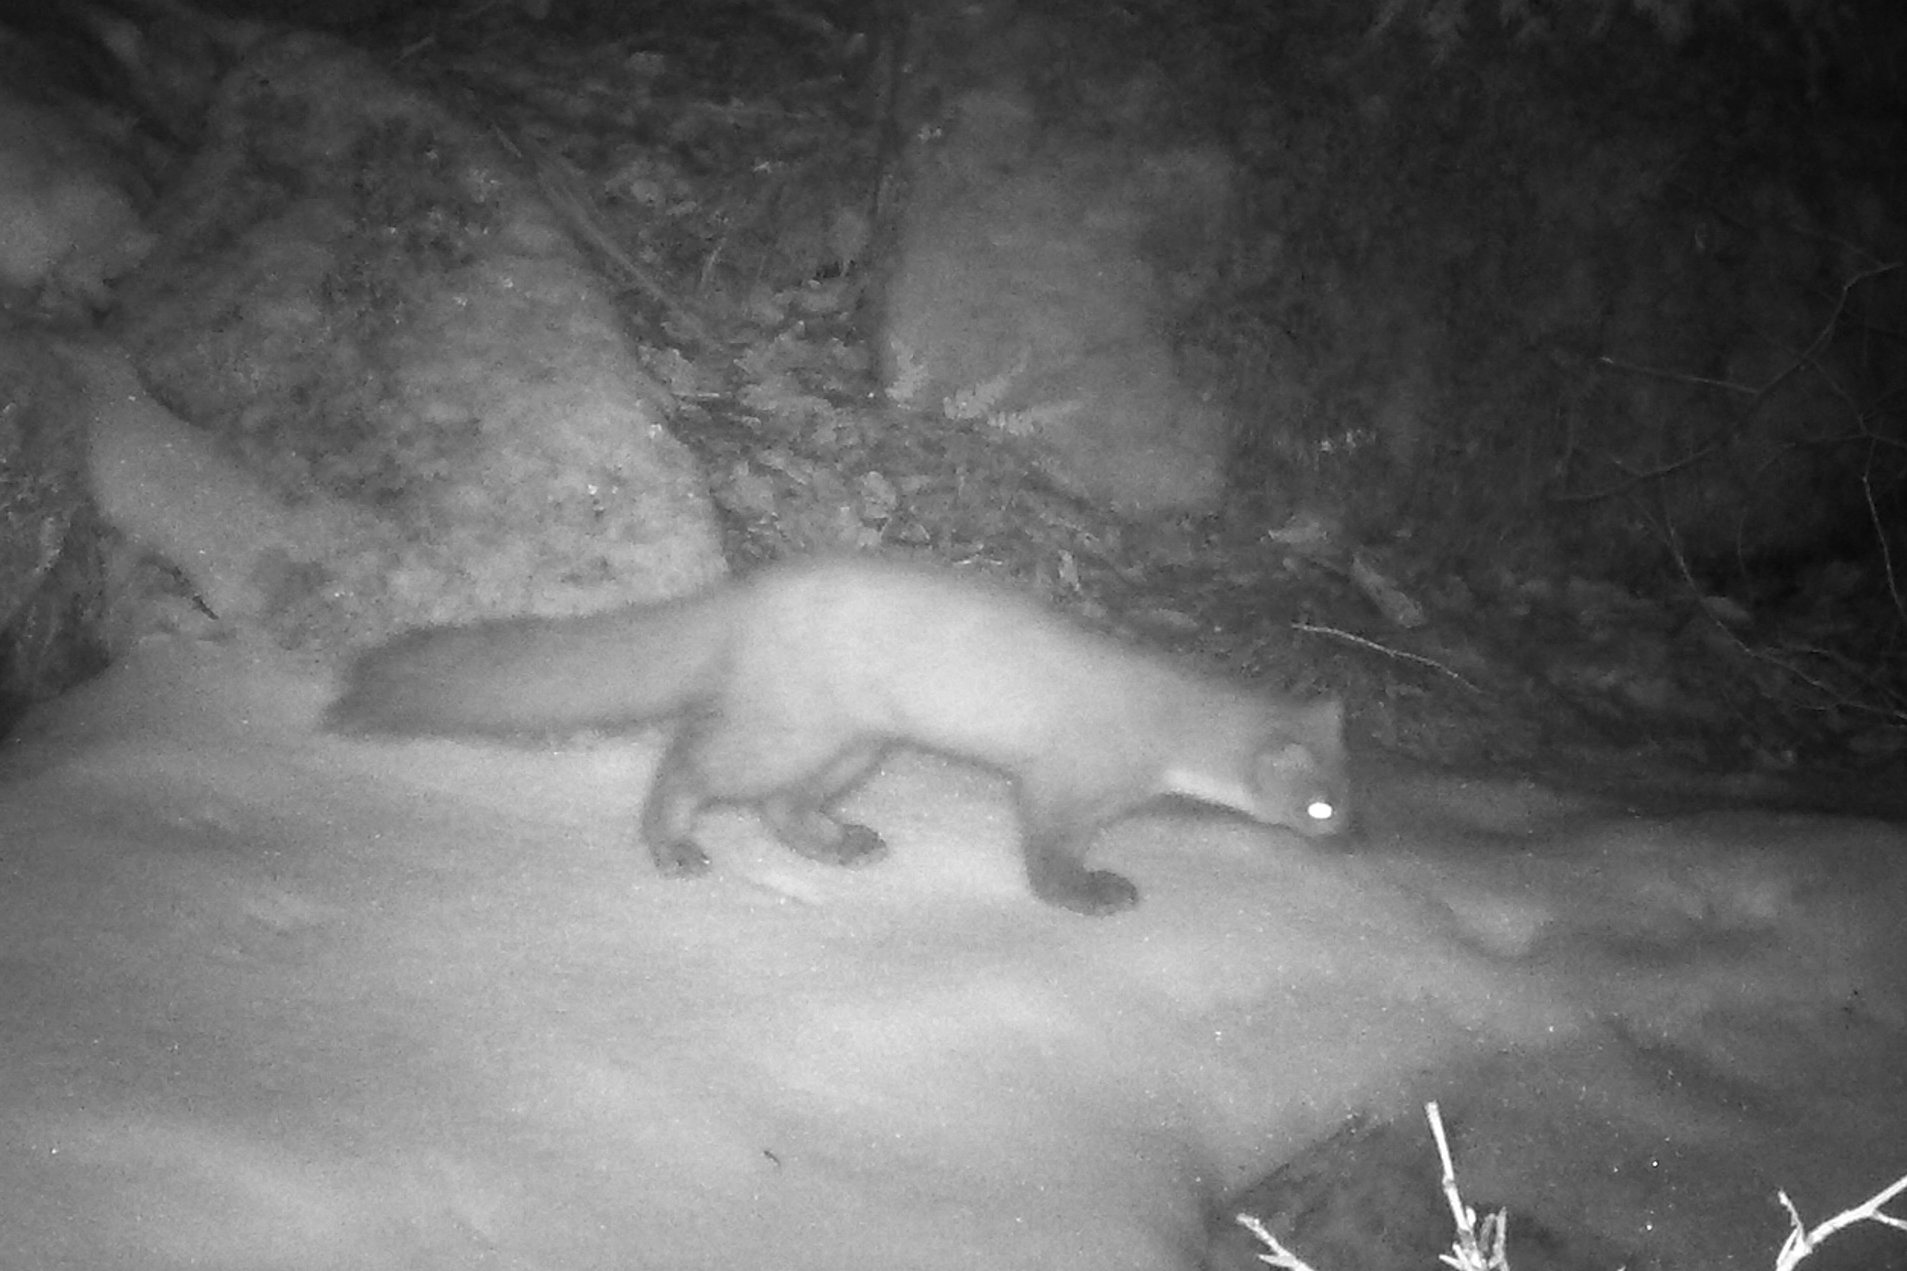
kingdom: Animalia
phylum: Chordata
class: Mammalia
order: Carnivora
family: Mustelidae
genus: Martes
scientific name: Martes martes
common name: European pine marten
